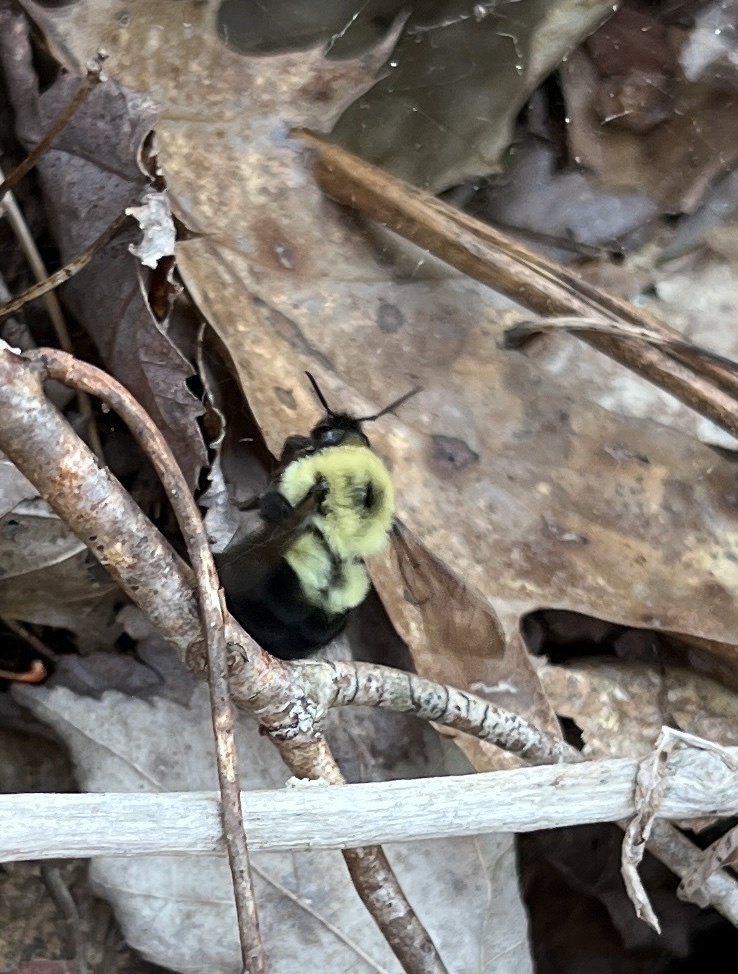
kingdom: Animalia
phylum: Arthropoda
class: Insecta
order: Hymenoptera
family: Apidae
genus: Bombus
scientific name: Bombus bimaculatus
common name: Two-spotted bumble bee
